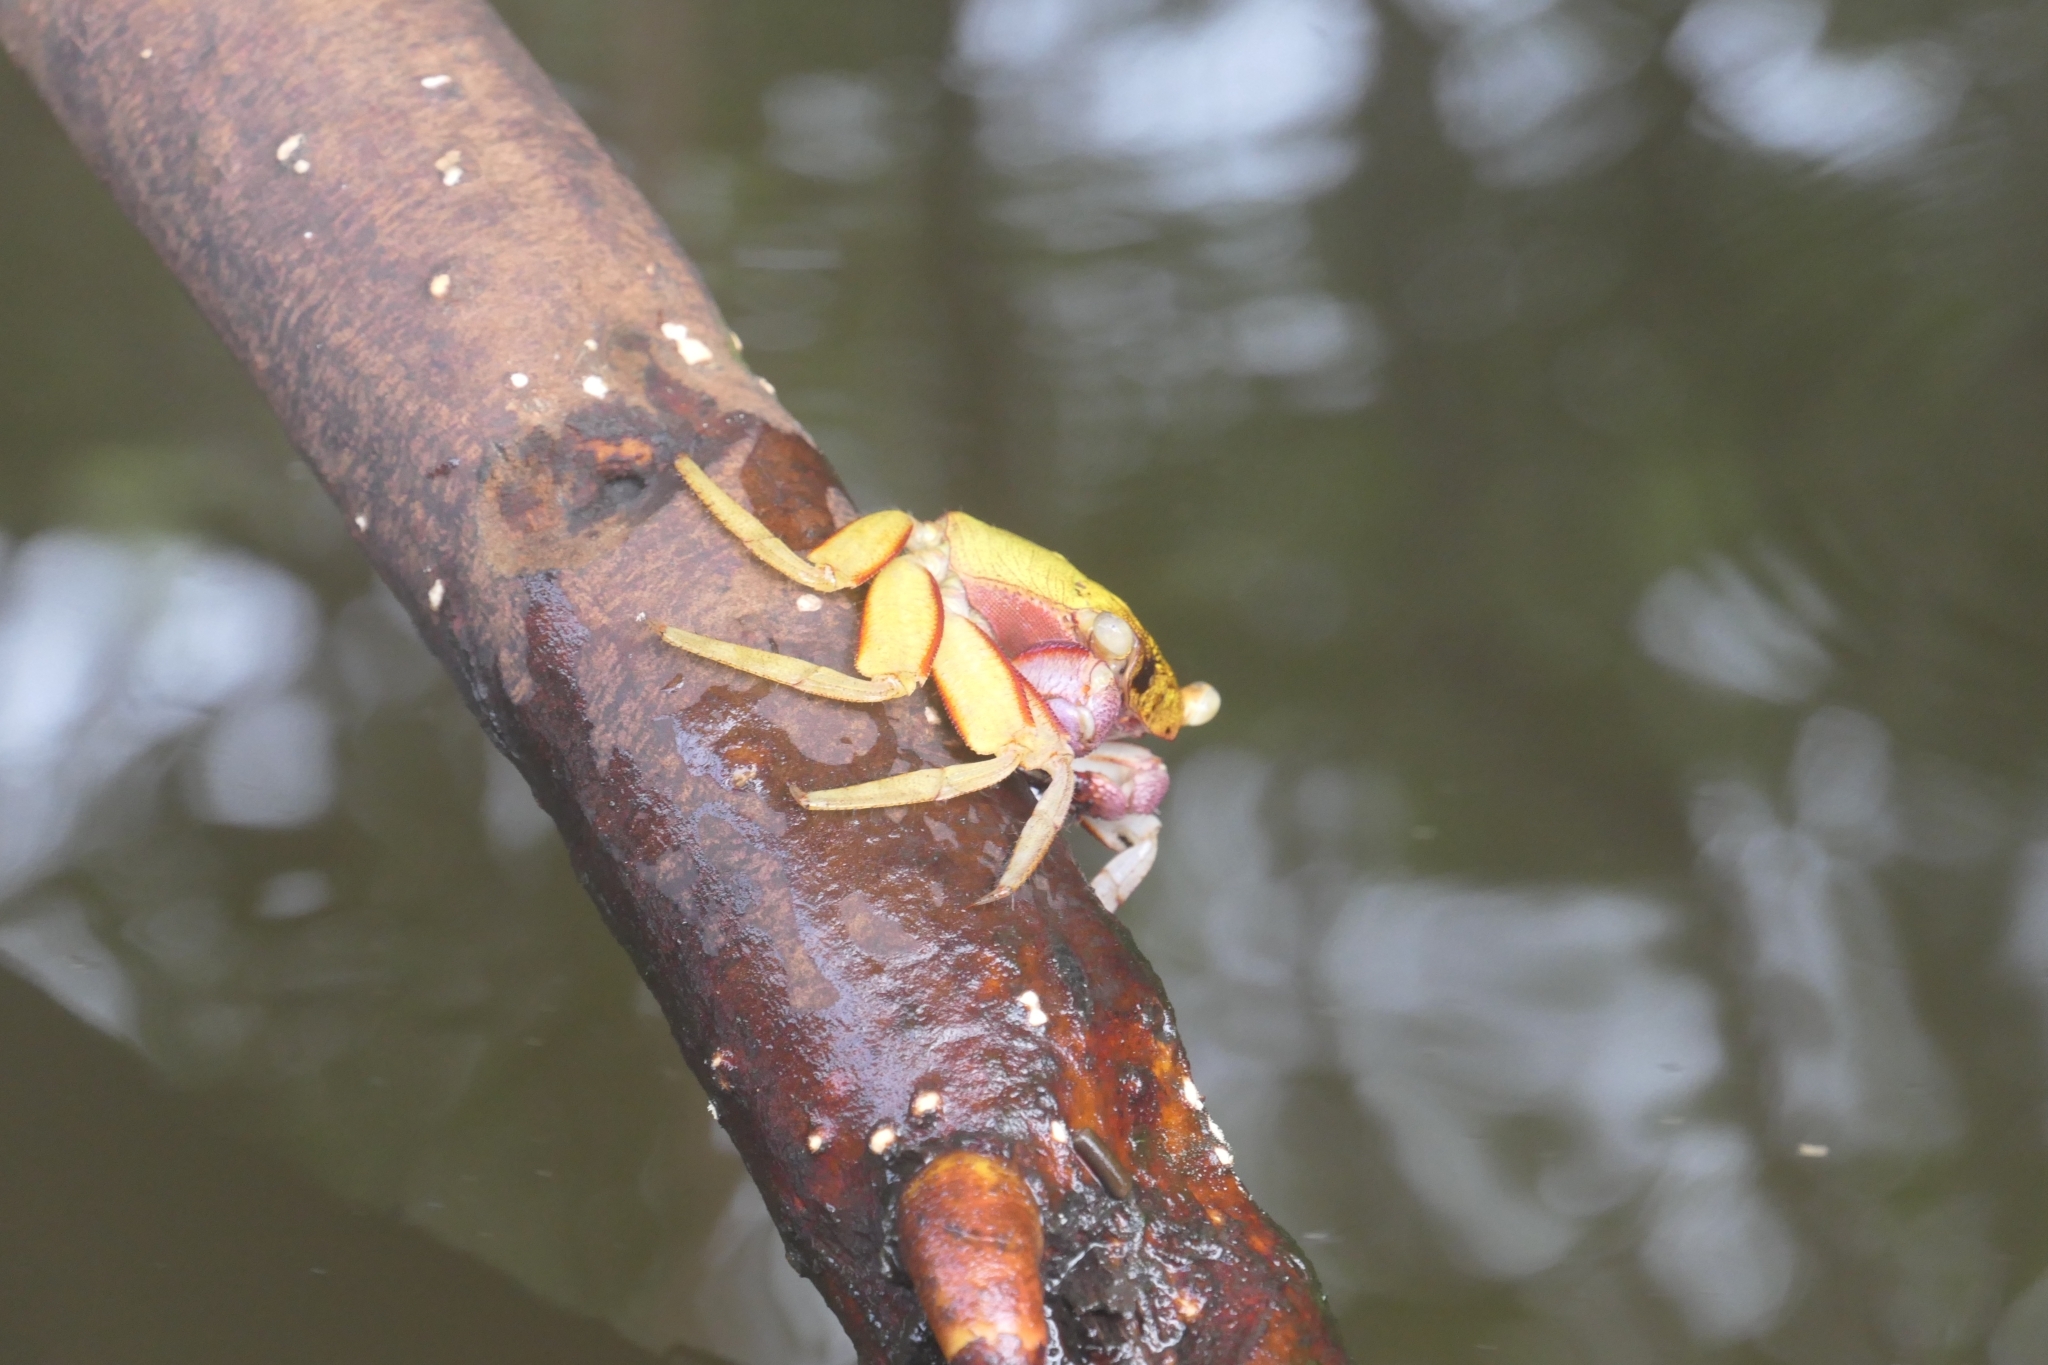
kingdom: Animalia
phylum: Arthropoda
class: Malacostraca
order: Decapoda
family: Sesarmidae
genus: Aratus
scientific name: Aratus pisonii
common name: Mangrove crab
